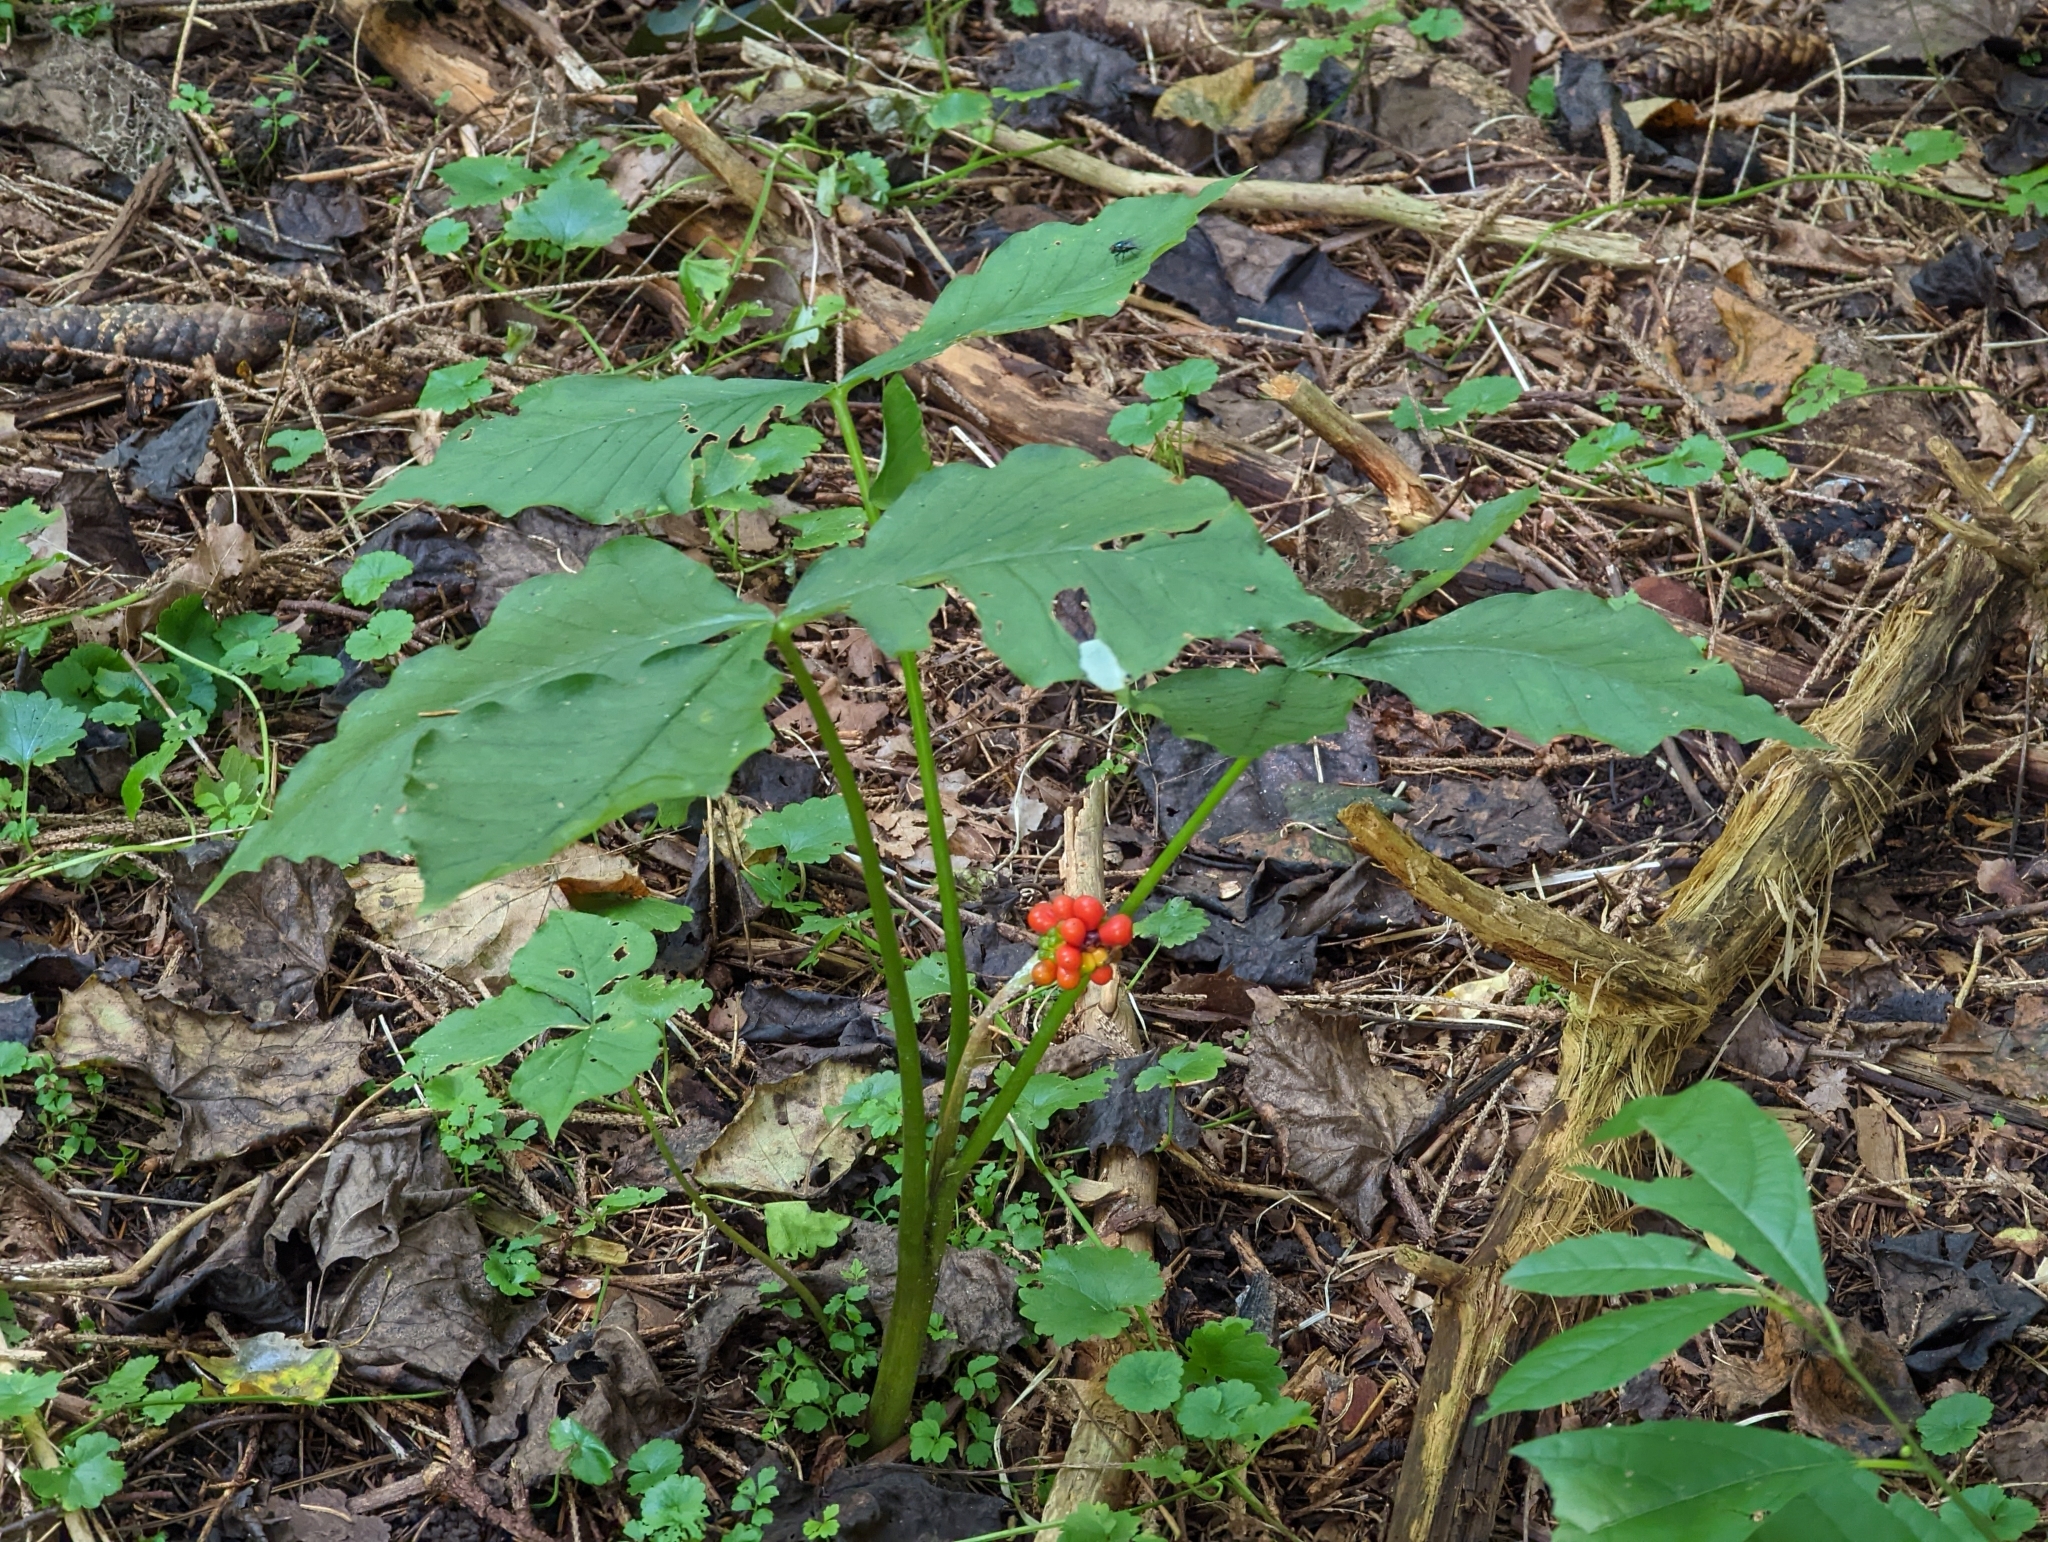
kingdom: Plantae
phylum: Tracheophyta
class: Liliopsida
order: Alismatales
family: Araceae
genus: Arisaema
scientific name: Arisaema triphyllum
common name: Jack-in-the-pulpit
